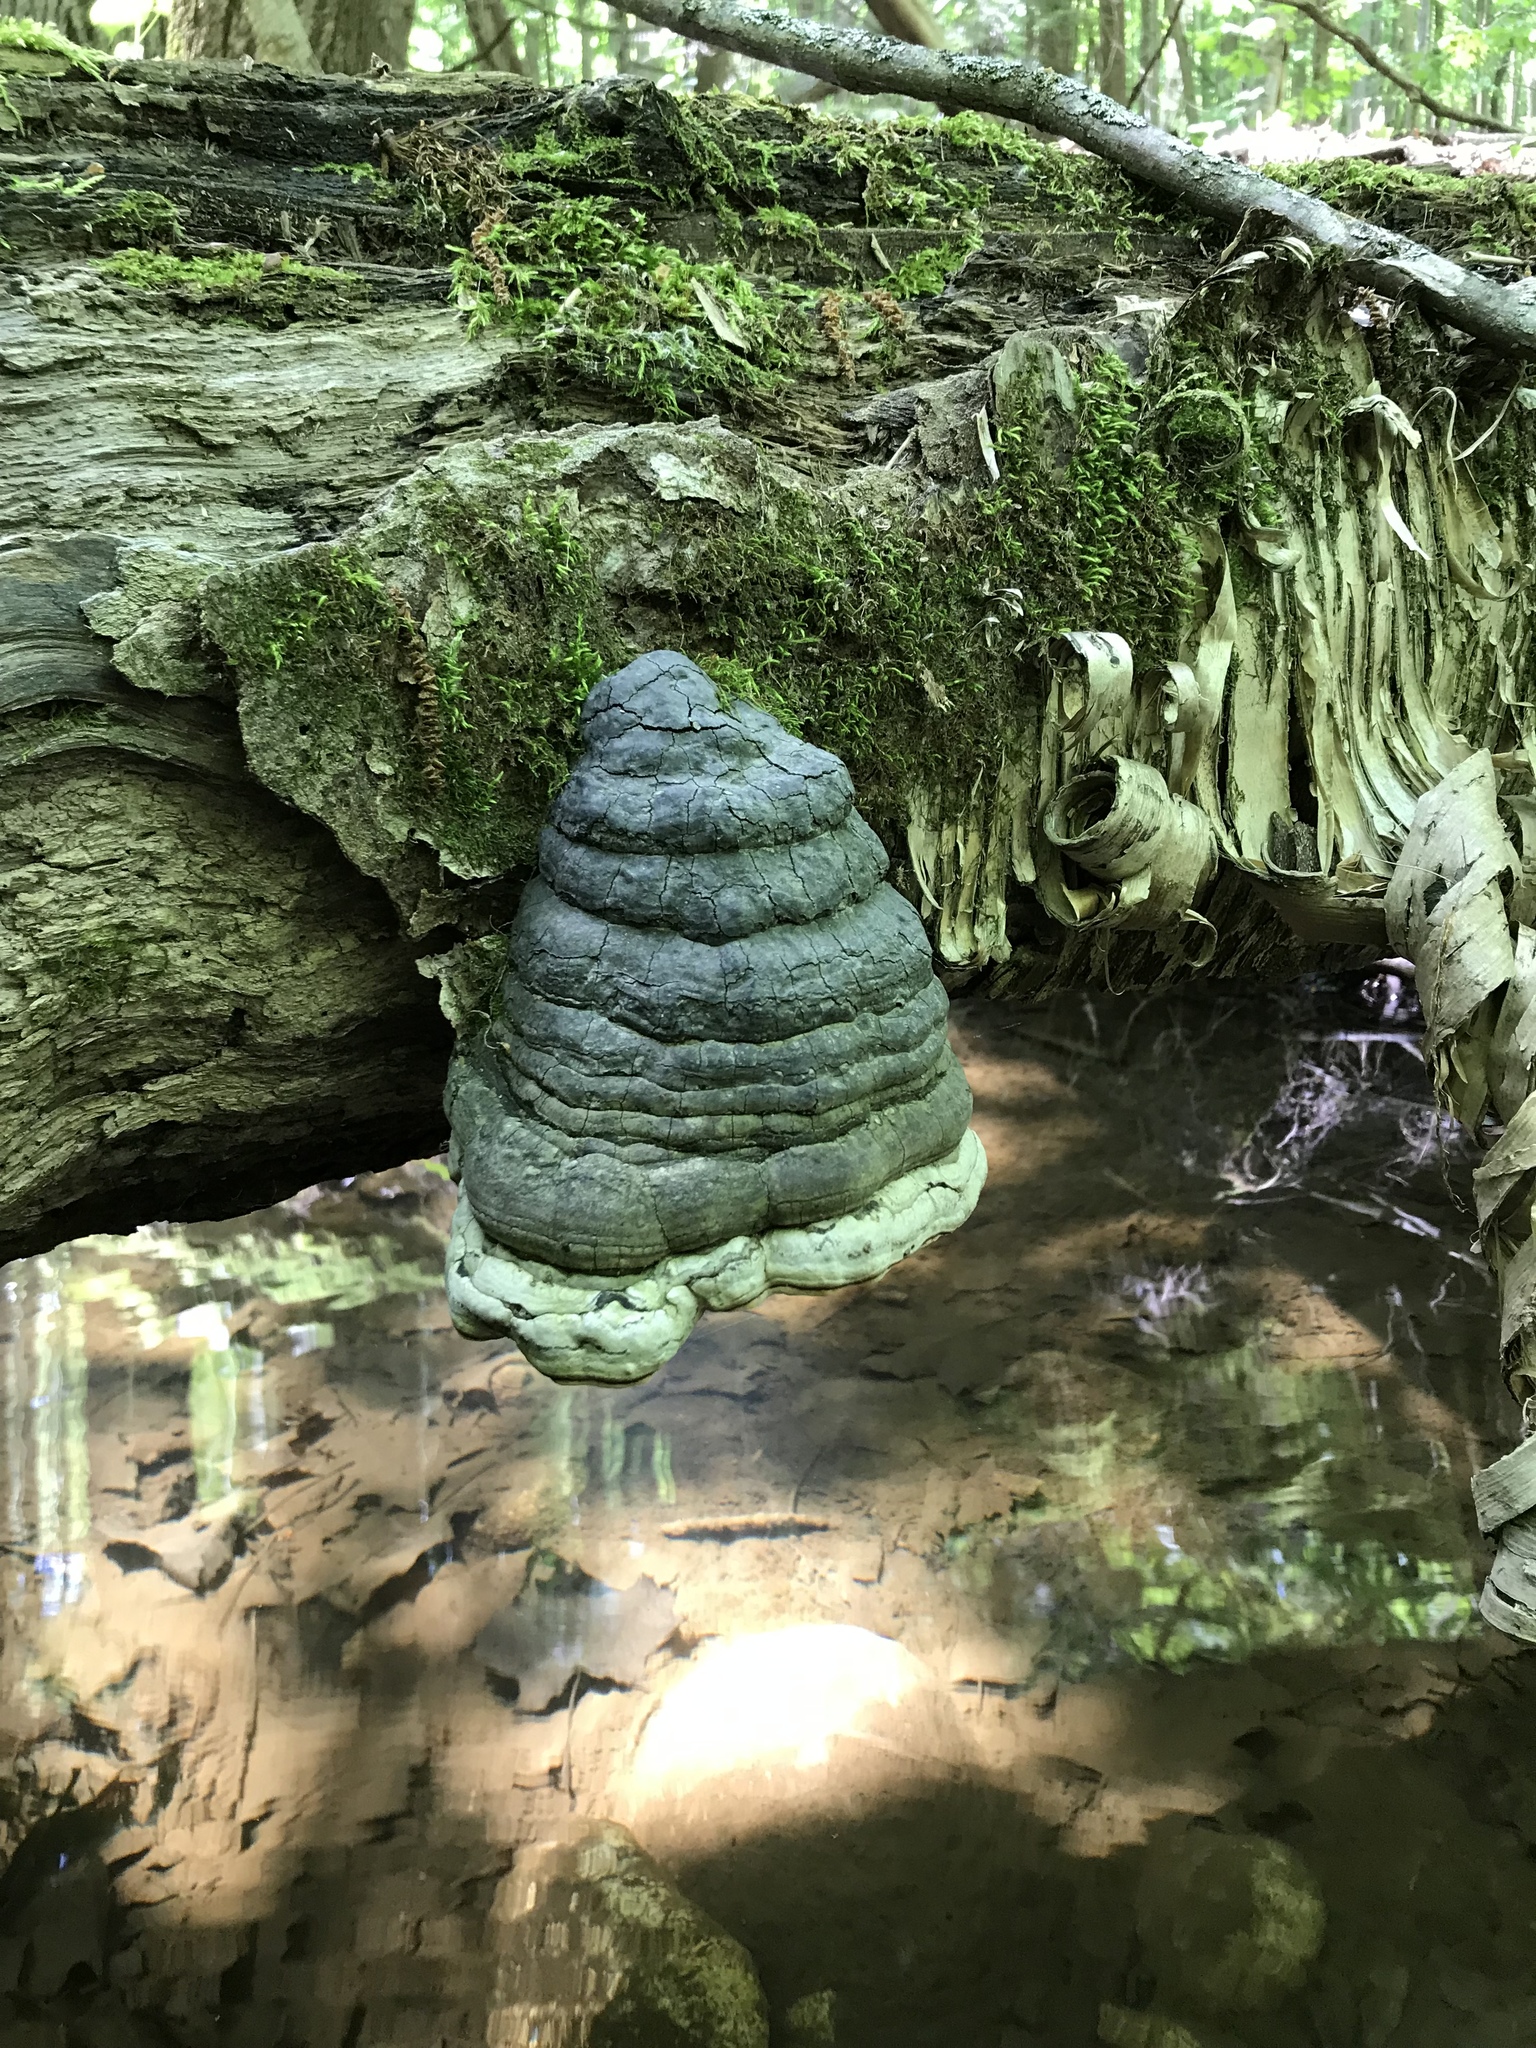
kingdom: Fungi
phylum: Basidiomycota
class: Agaricomycetes
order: Polyporales
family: Polyporaceae
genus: Fomes
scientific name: Fomes fomentarius
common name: Hoof fungus
